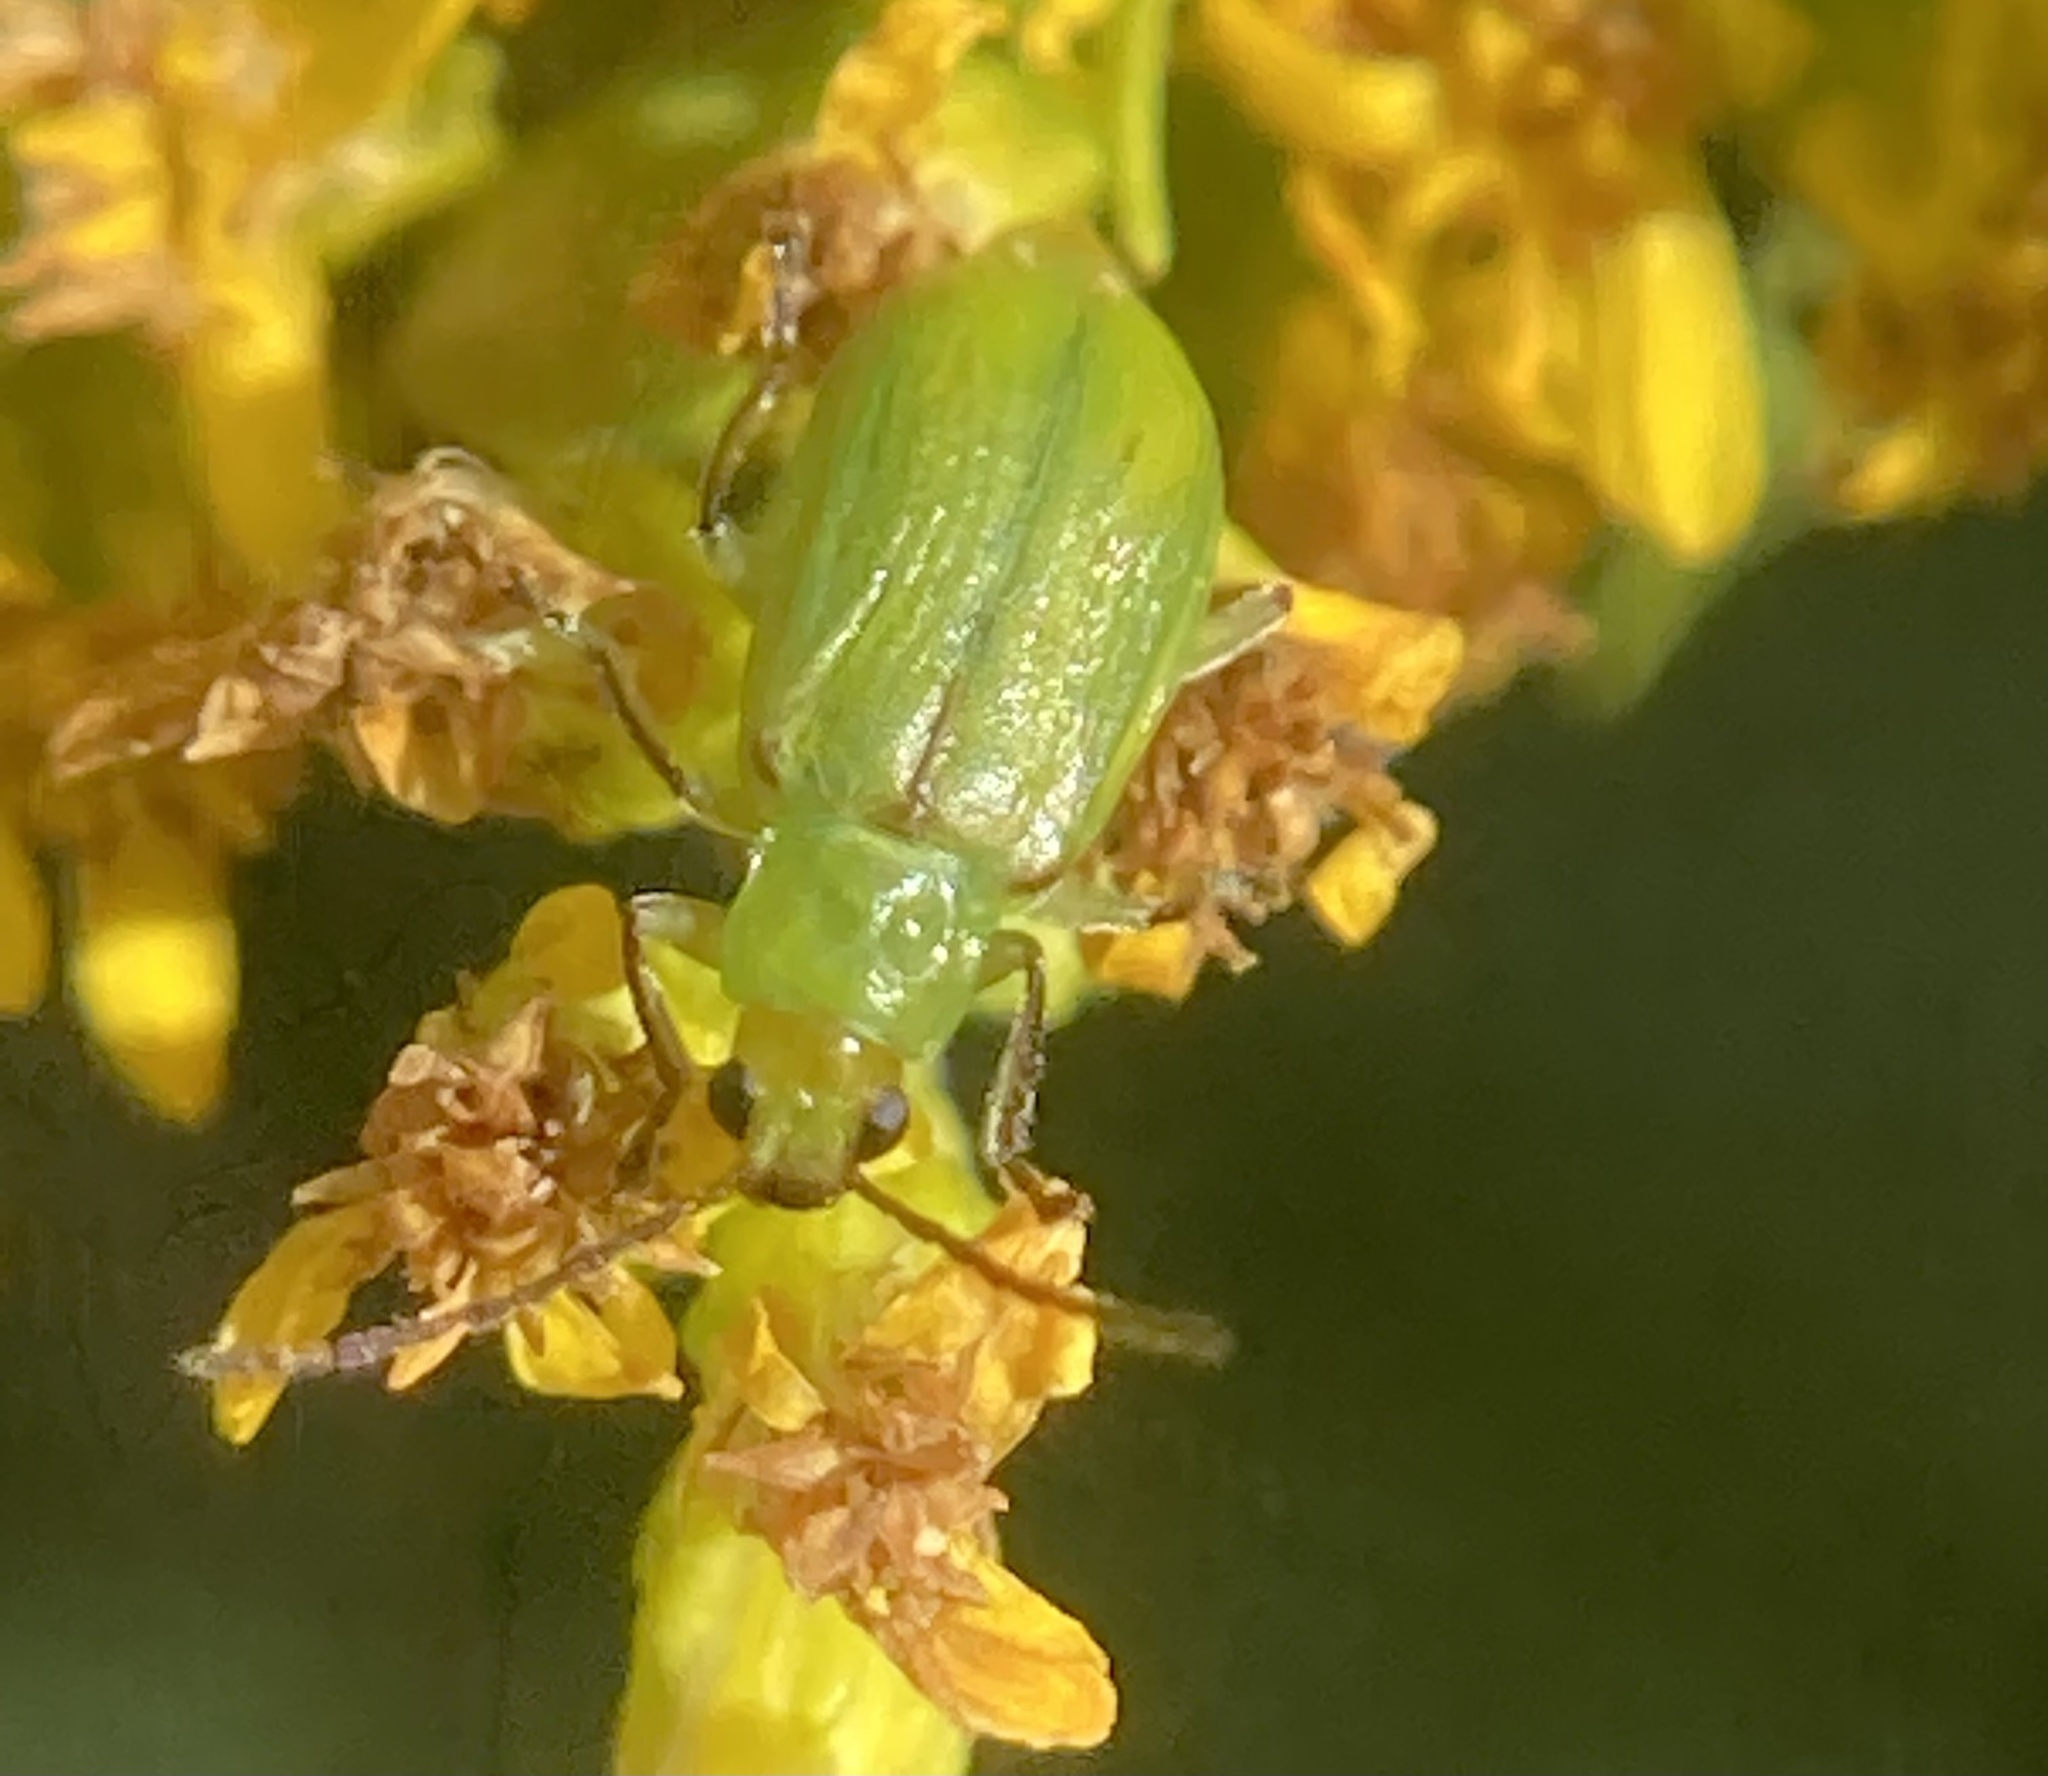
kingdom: Animalia
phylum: Arthropoda
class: Insecta
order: Coleoptera
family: Chrysomelidae
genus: Diabrotica
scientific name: Diabrotica barberi
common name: Northern corn rootworm
